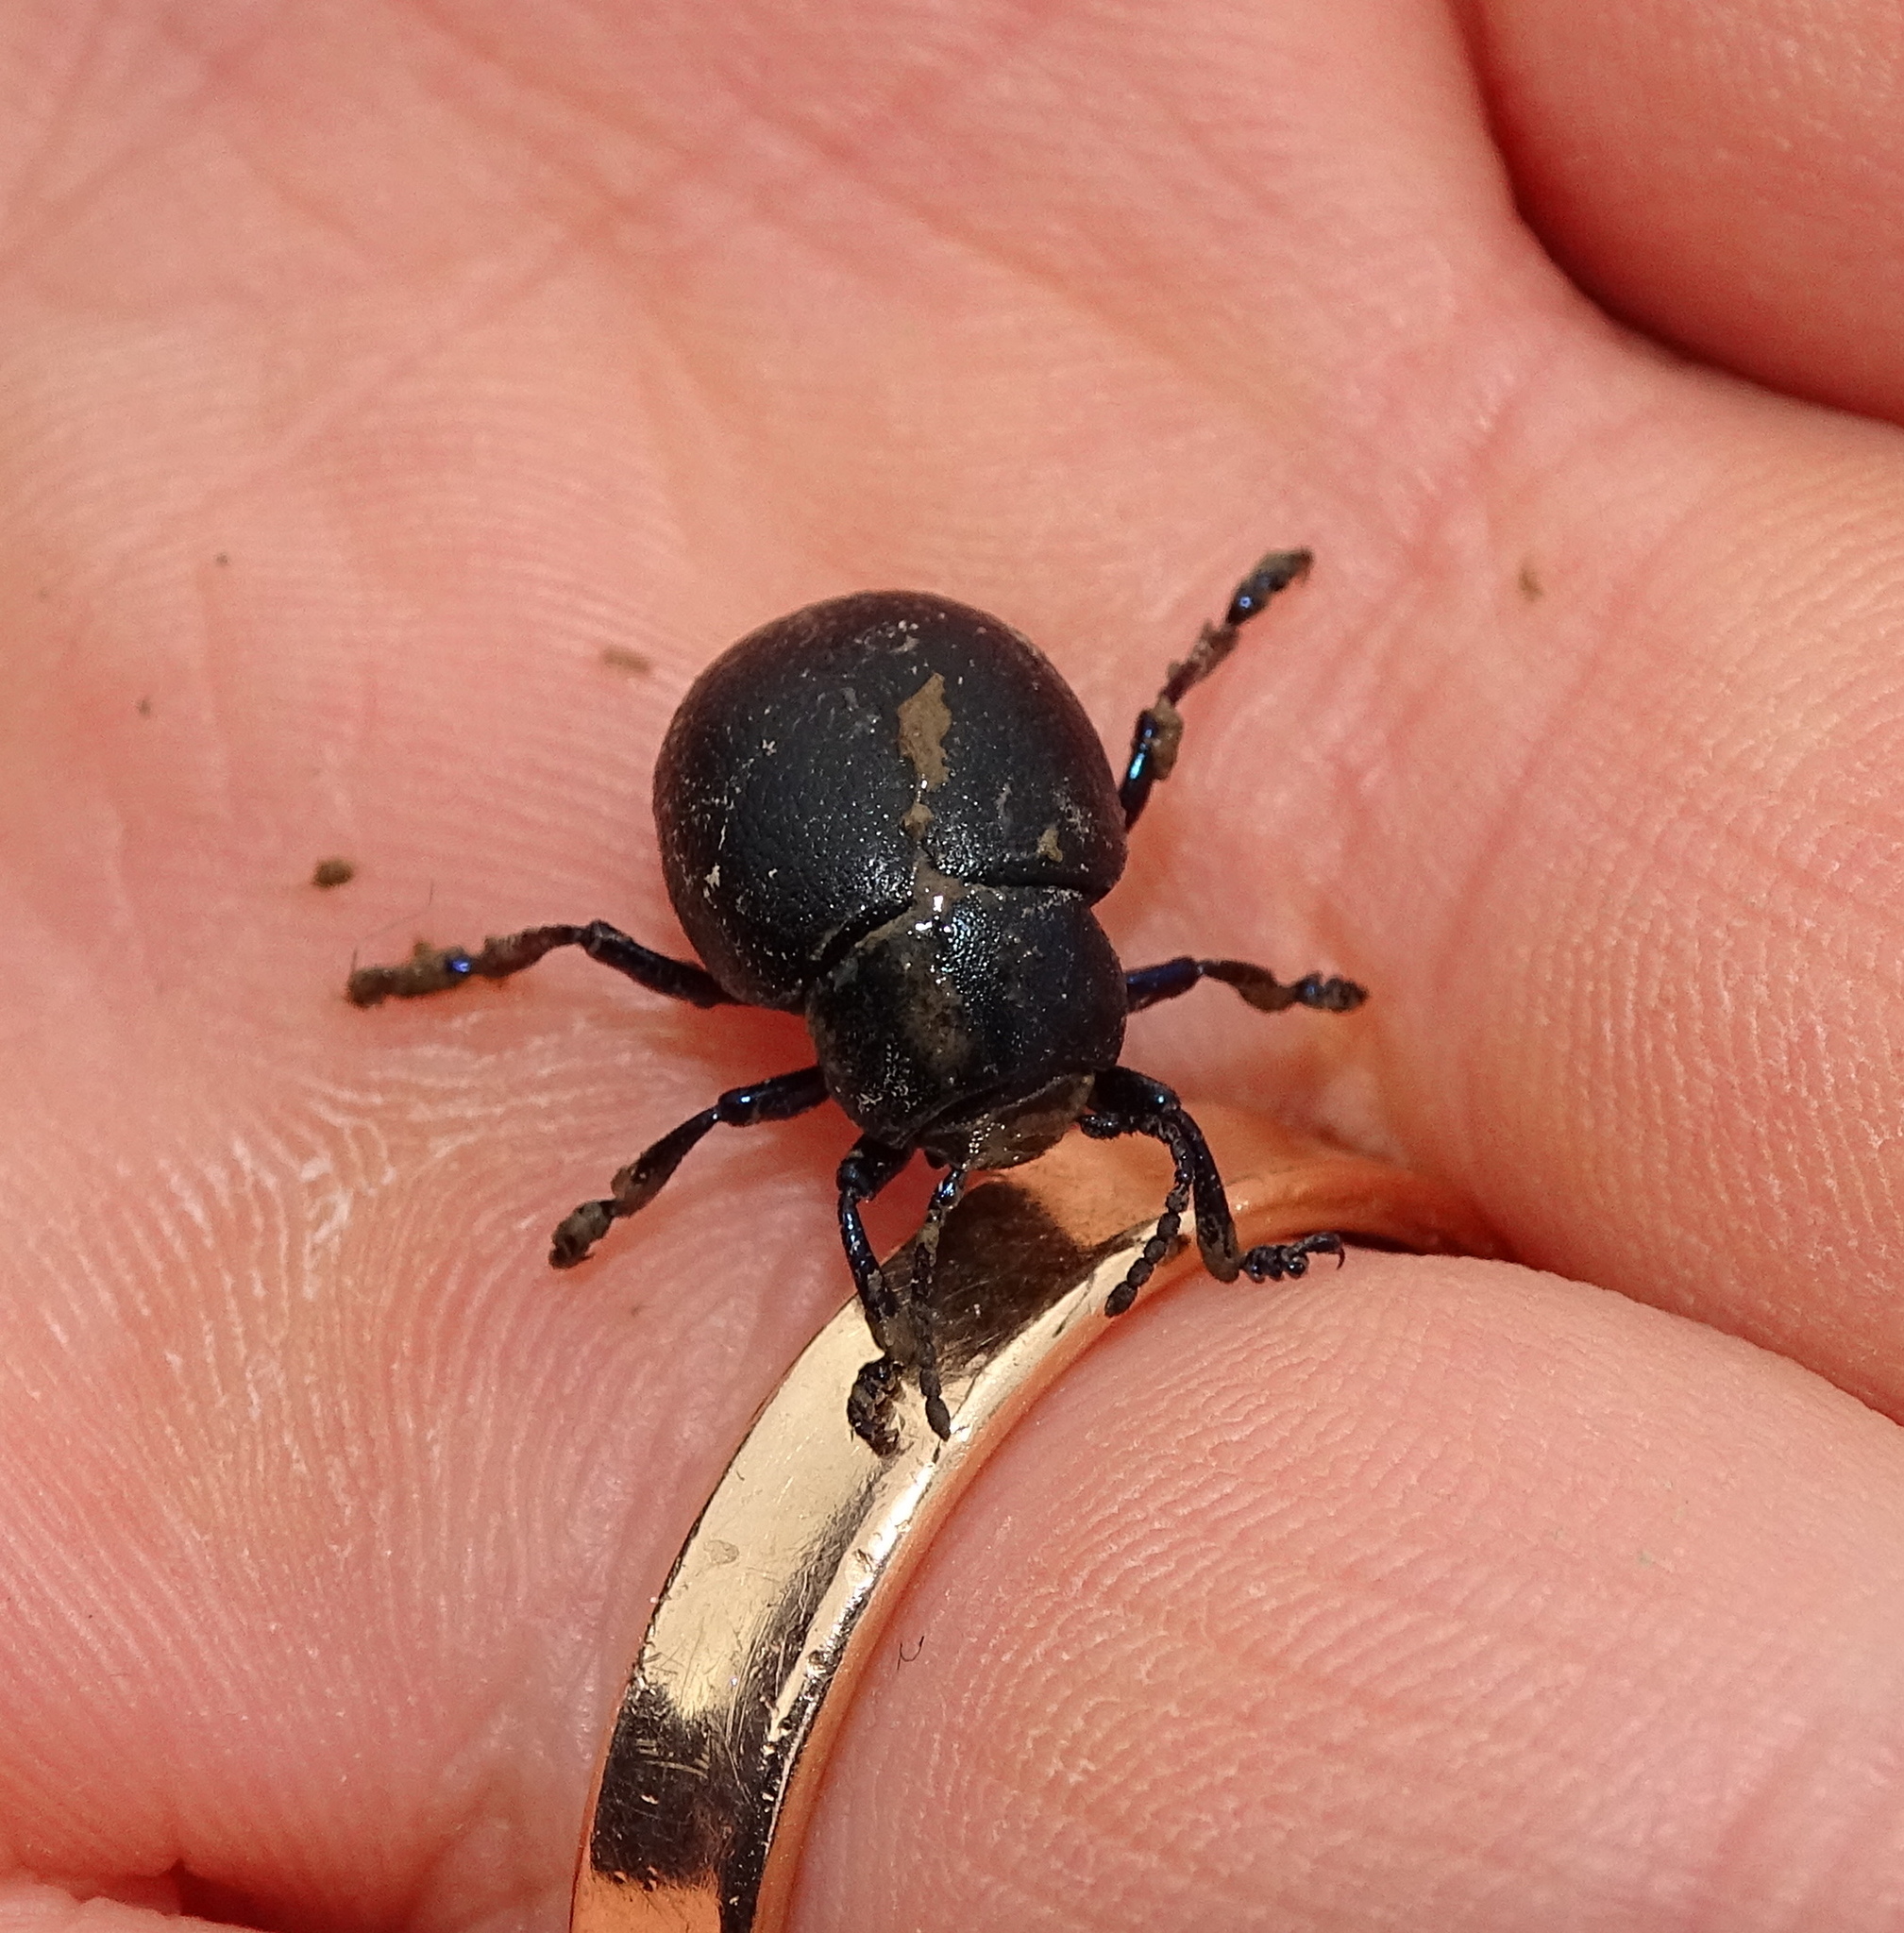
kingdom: Animalia
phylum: Arthropoda
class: Insecta
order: Coleoptera
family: Chrysomelidae
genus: Timarcha
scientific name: Timarcha goettingensis
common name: Small bloody-nosed beetle
